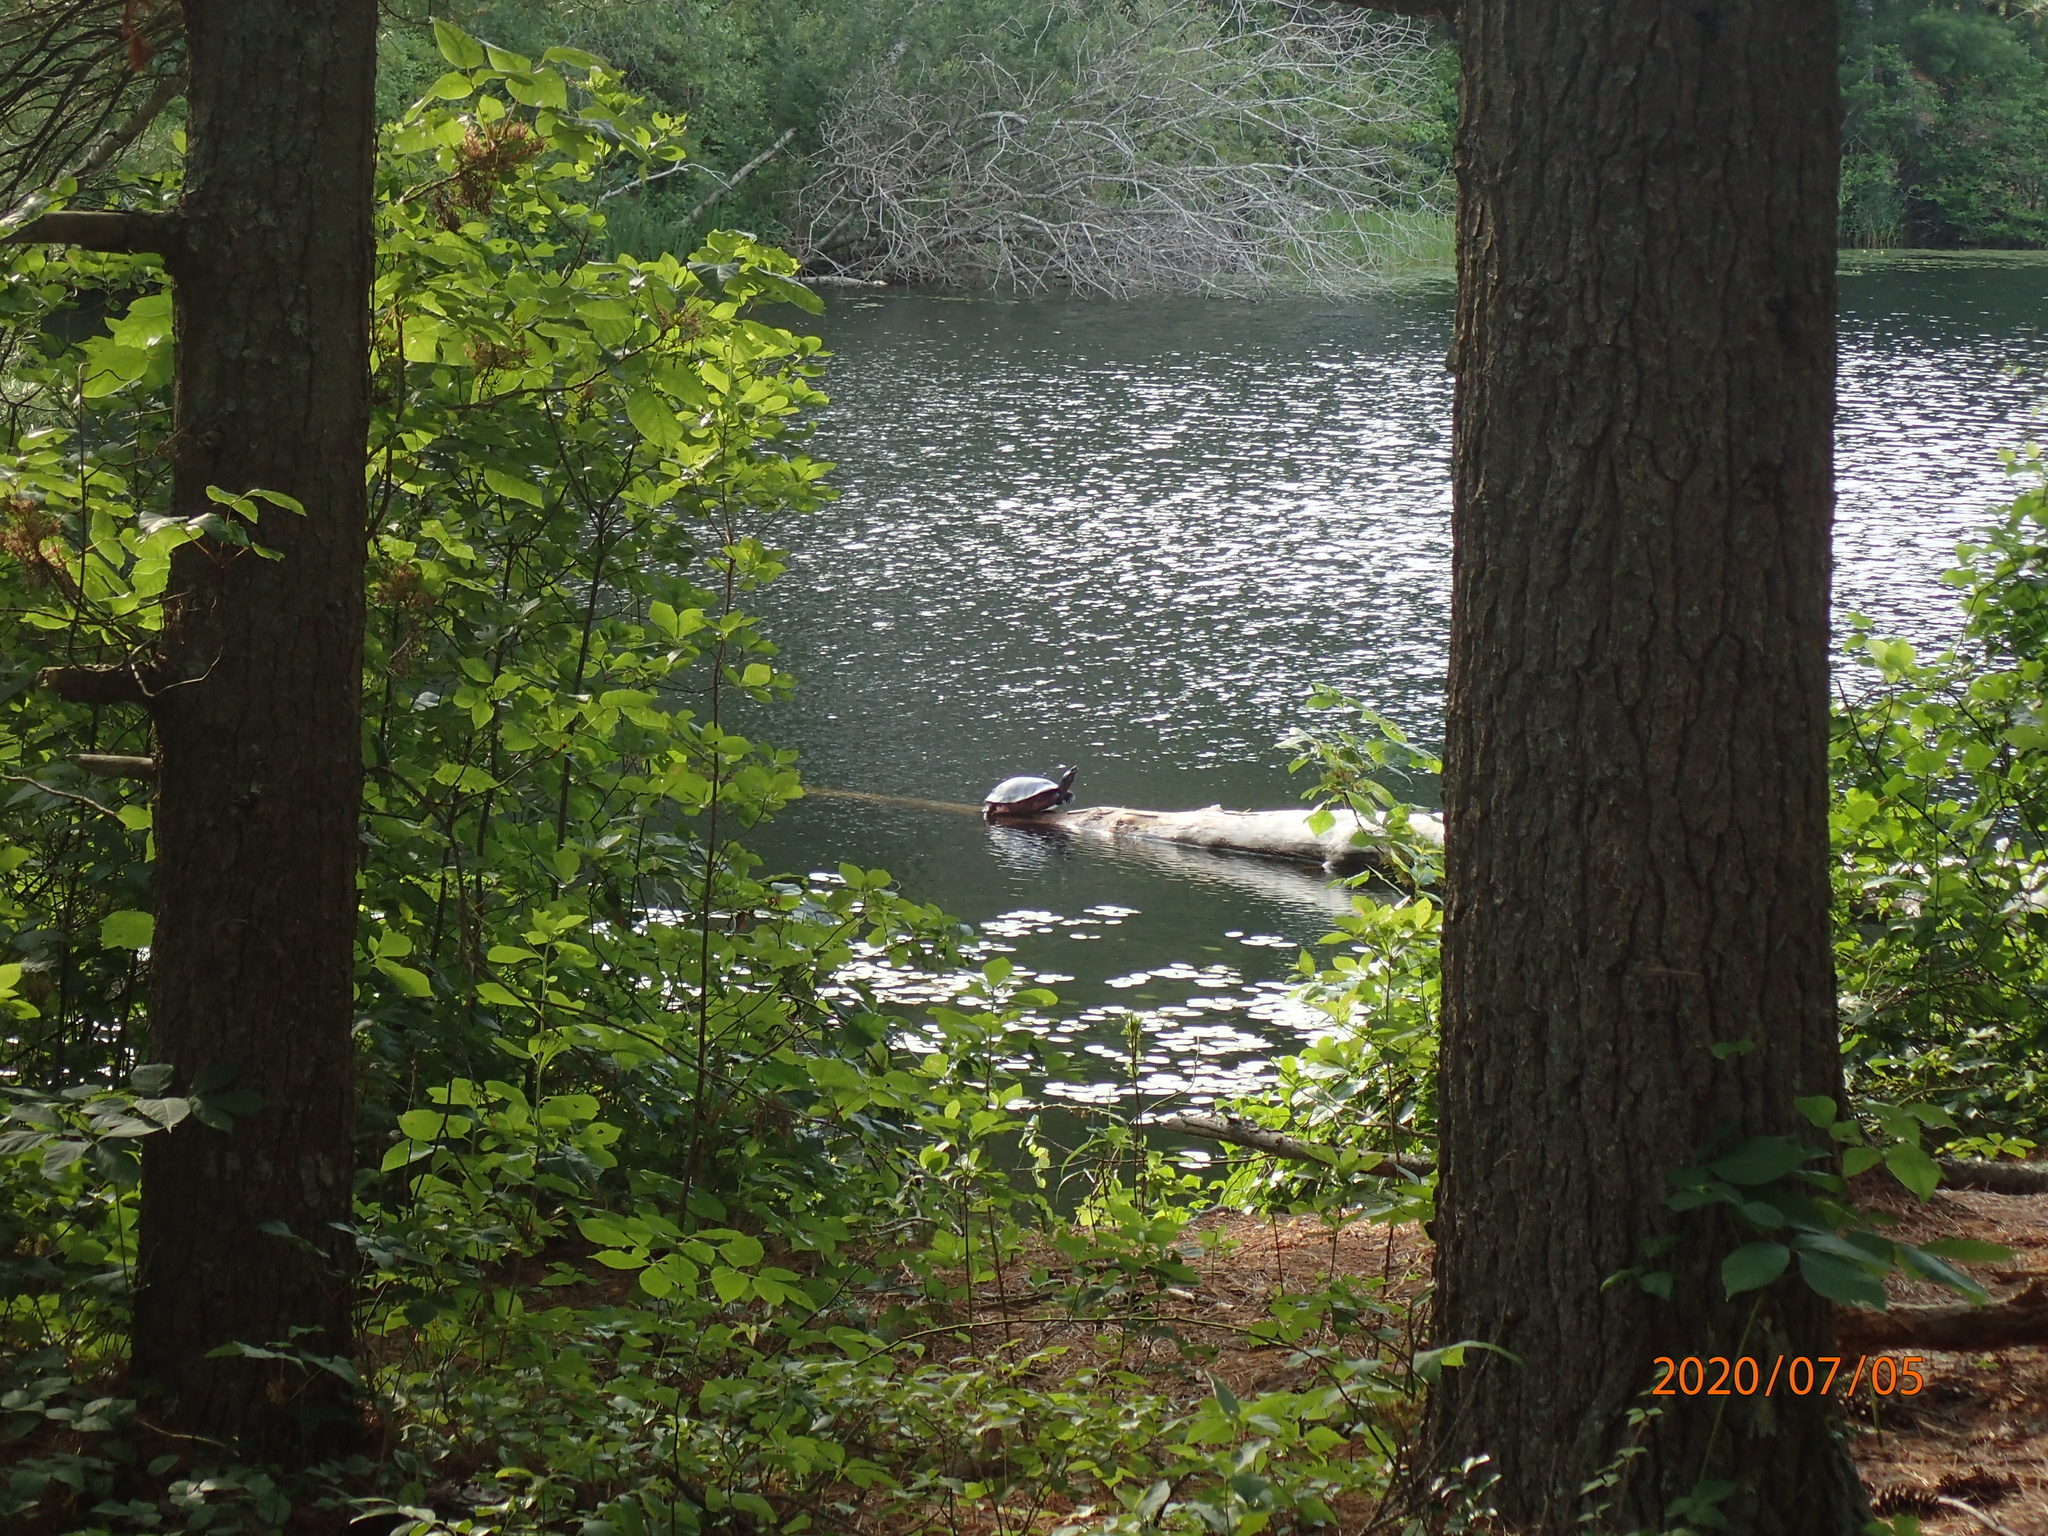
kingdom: Animalia
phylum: Chordata
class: Testudines
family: Emydidae
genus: Pseudemys
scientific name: Pseudemys rubriventris
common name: American red-bellied turtle
